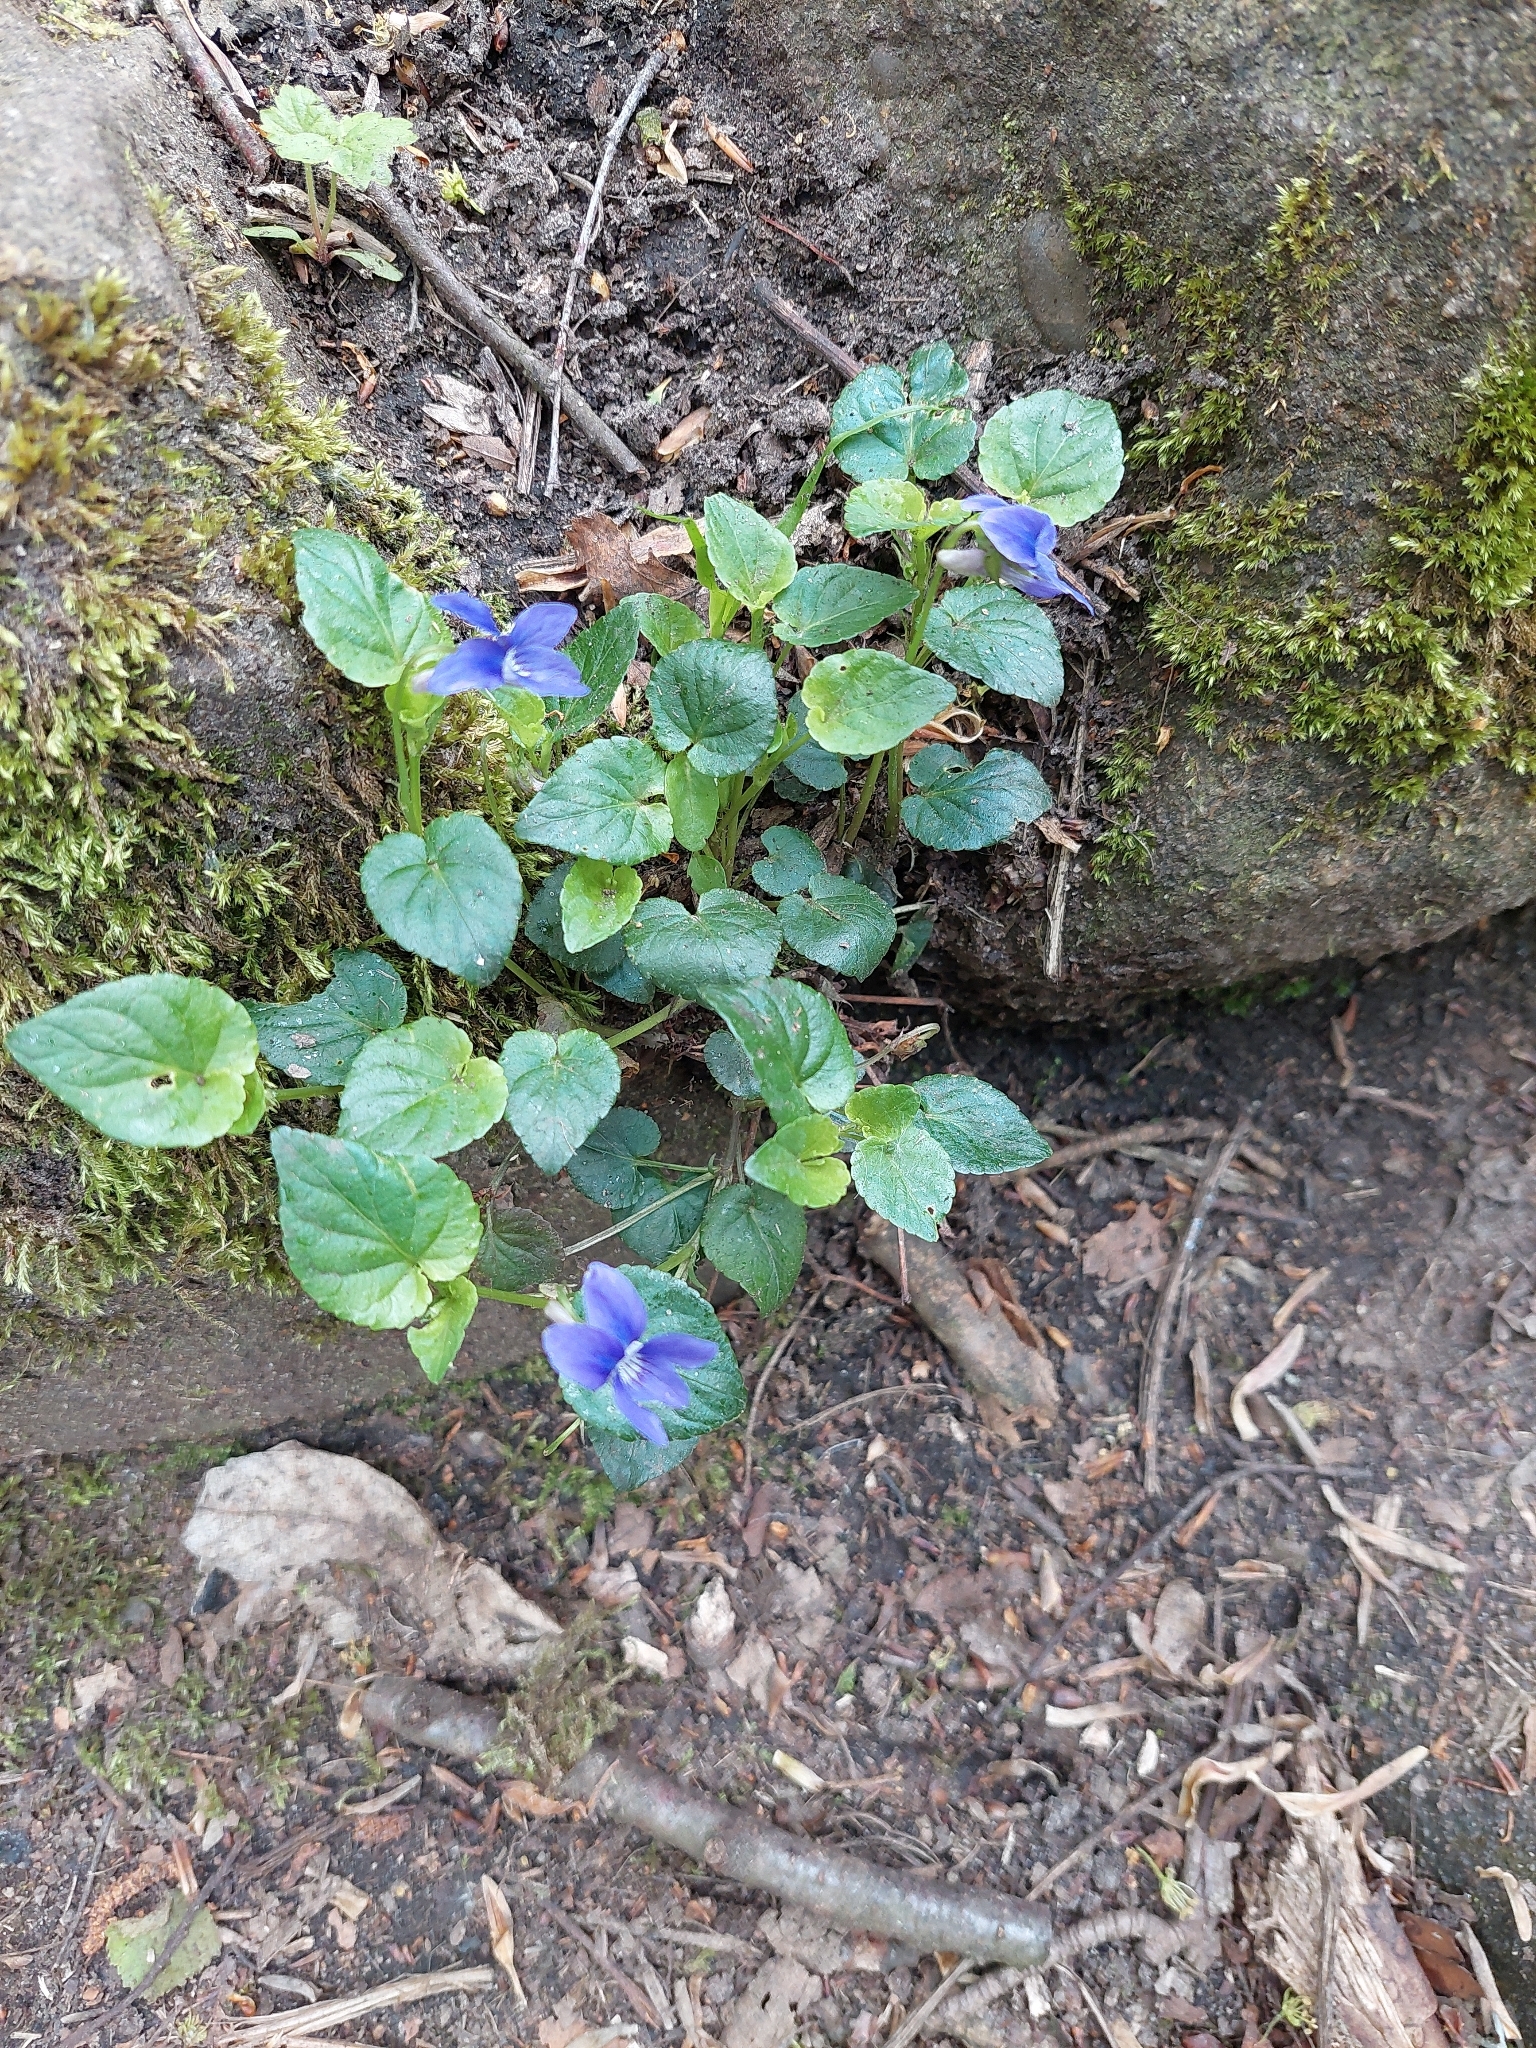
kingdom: Plantae
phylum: Tracheophyta
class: Magnoliopsida
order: Malpighiales
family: Violaceae
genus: Viola
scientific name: Viola riviniana
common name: Common dog-violet
